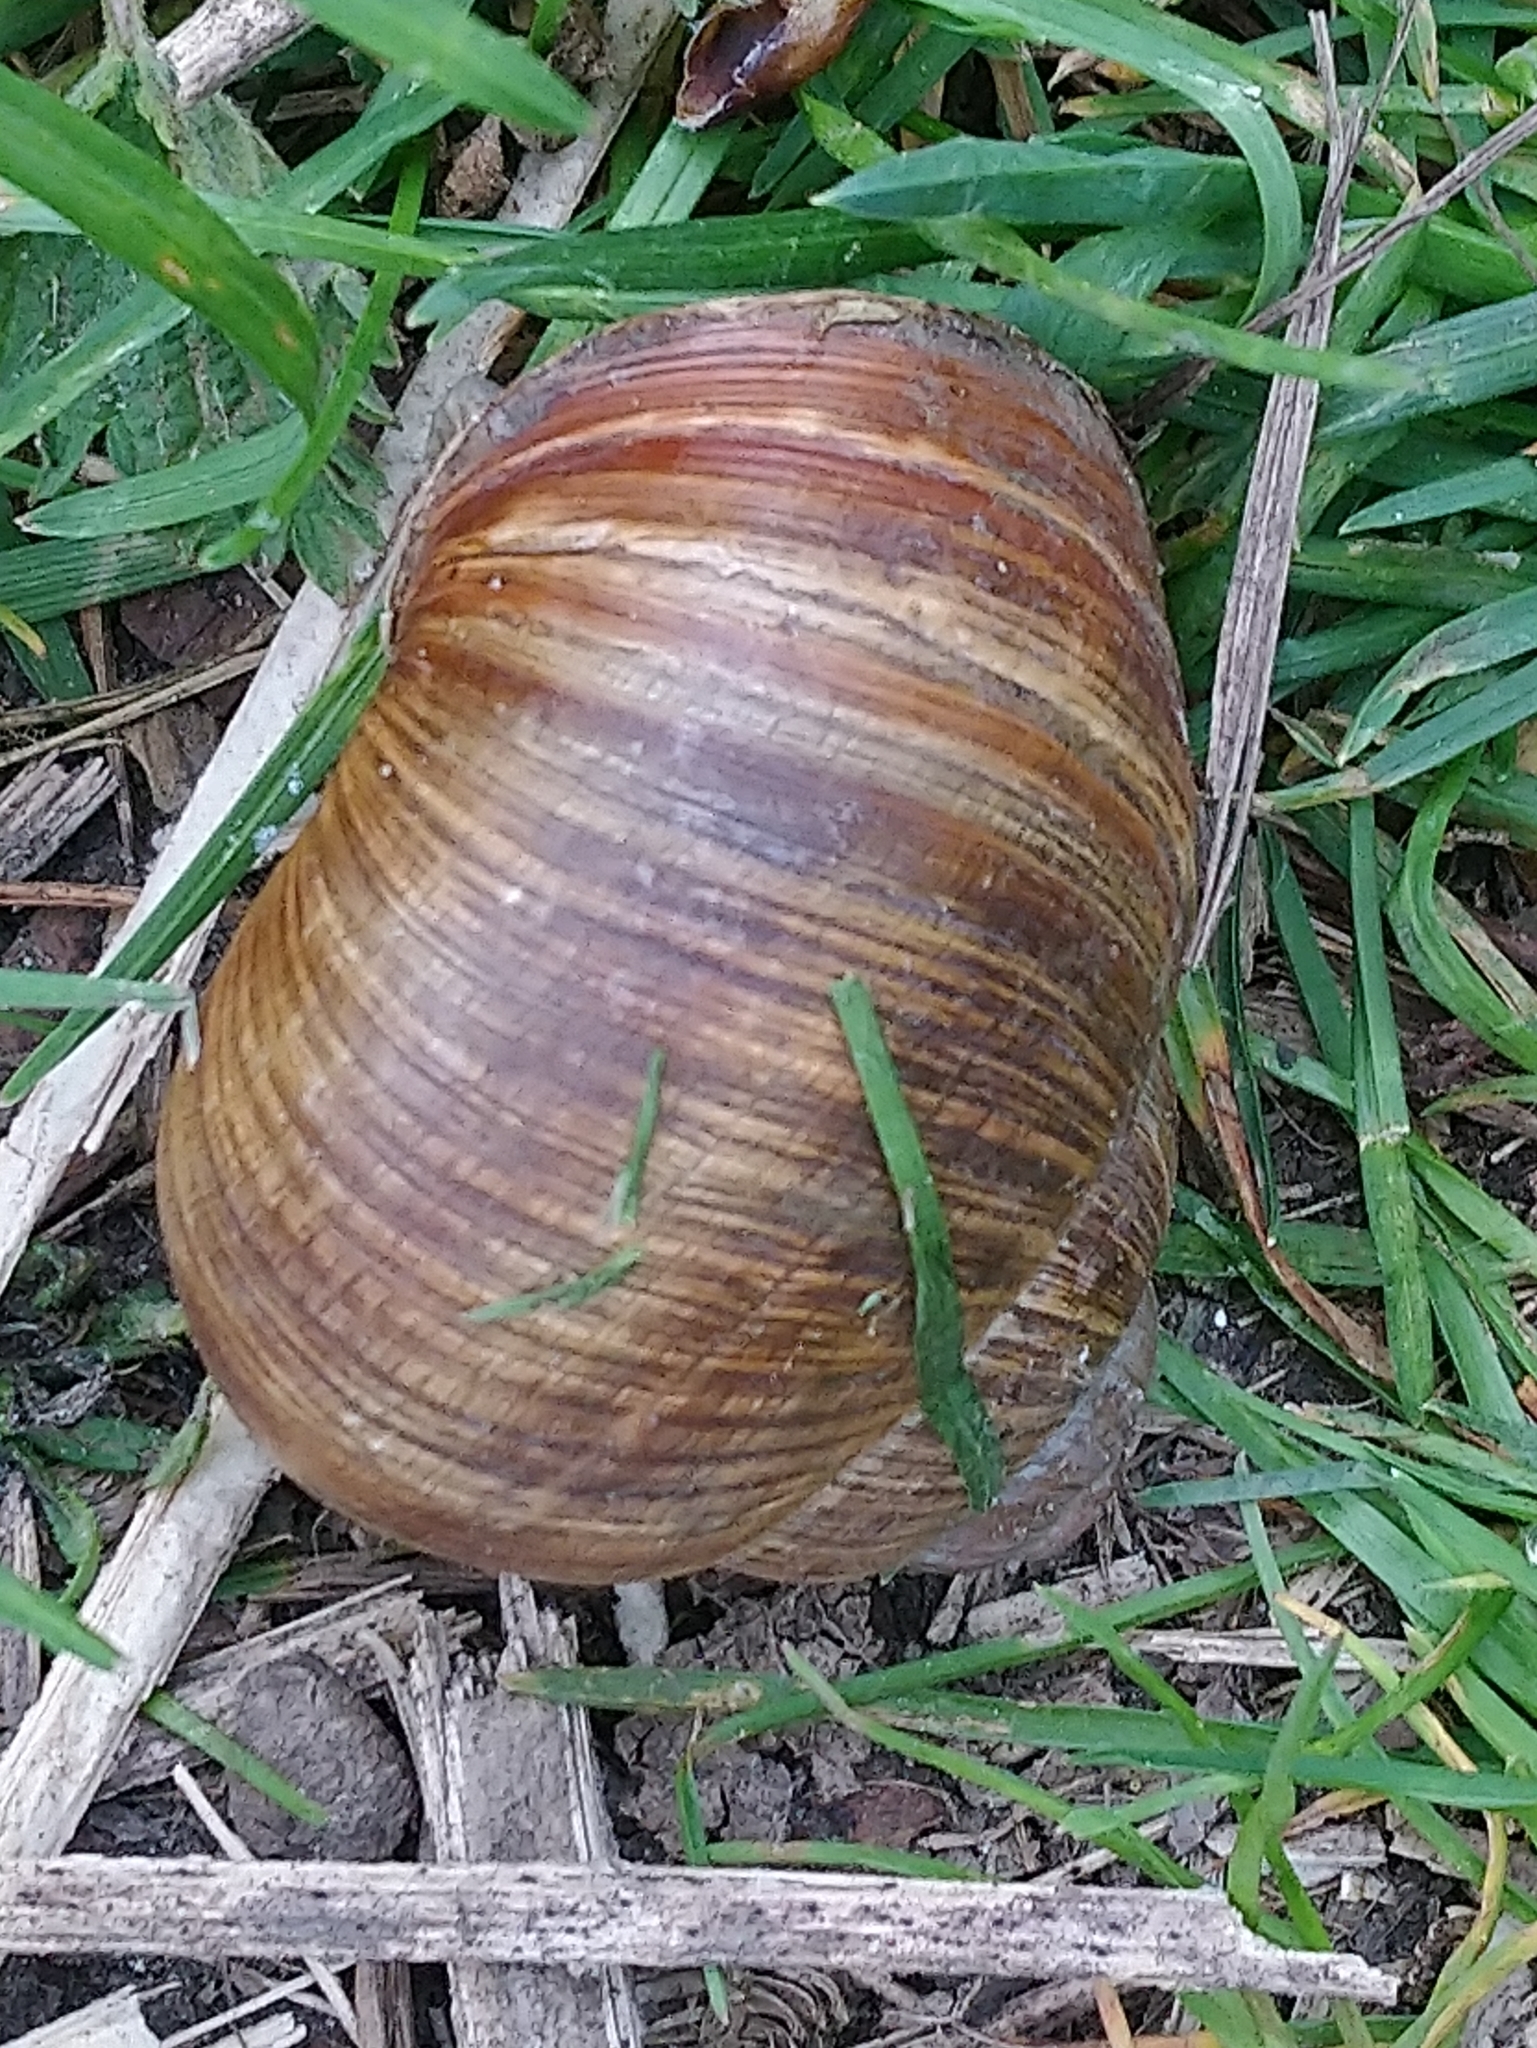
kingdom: Animalia
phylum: Mollusca
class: Gastropoda
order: Stylommatophora
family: Helicidae
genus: Helix
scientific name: Helix pomatia
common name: Roman snail
